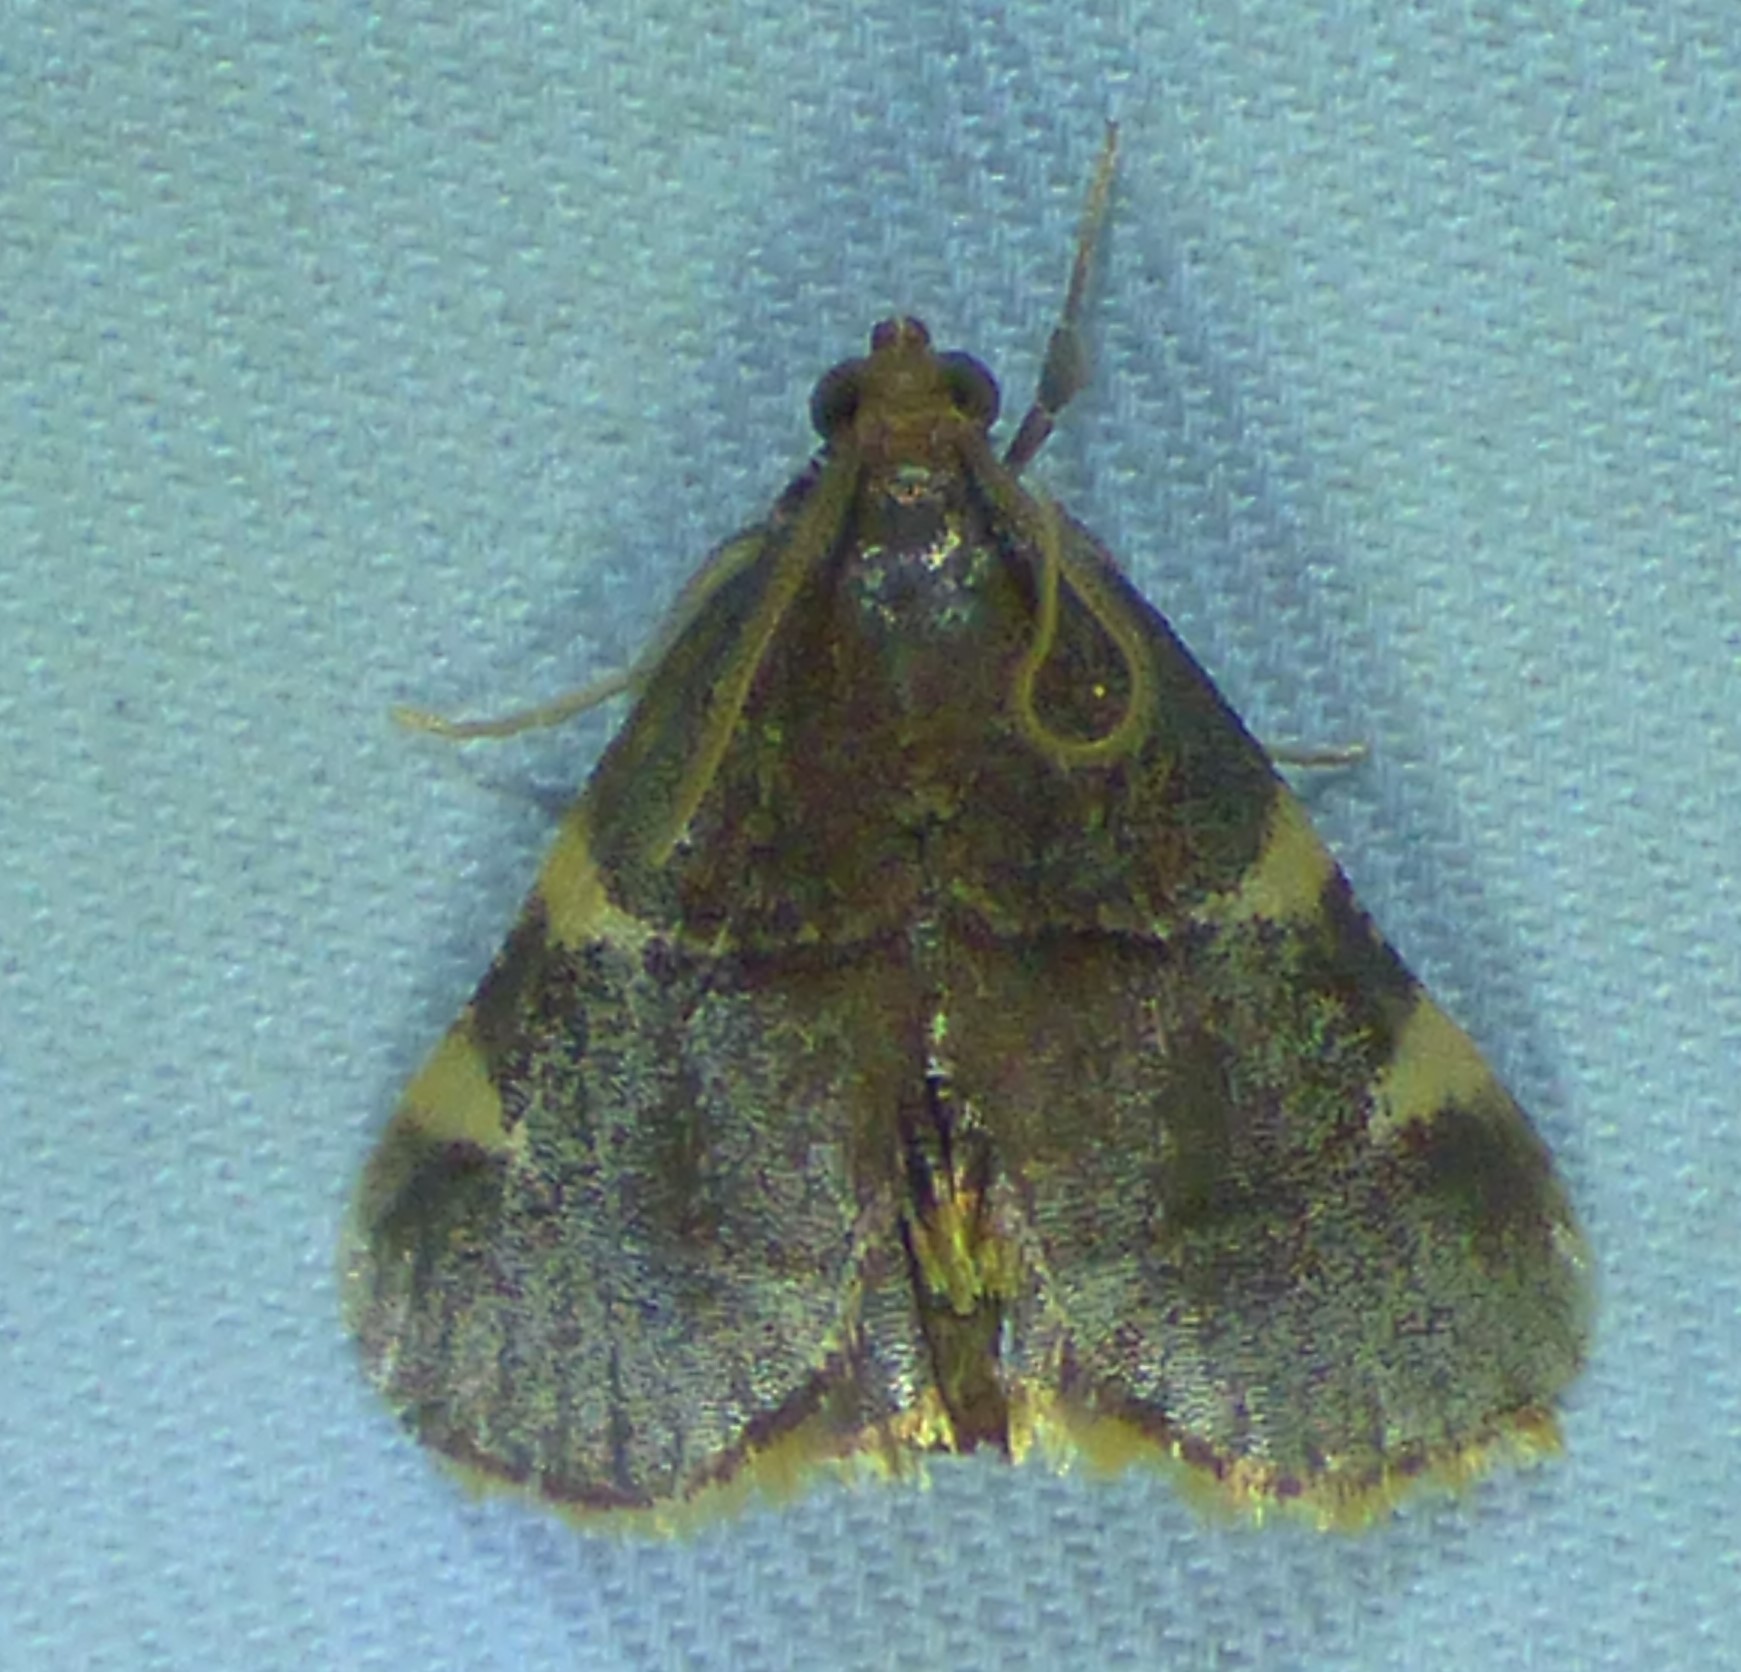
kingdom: Animalia
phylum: Arthropoda
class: Insecta
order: Lepidoptera
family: Pyralidae
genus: Hypsopygia
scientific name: Hypsopygia olinalis
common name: Yellow-fringed dolichomia moth
